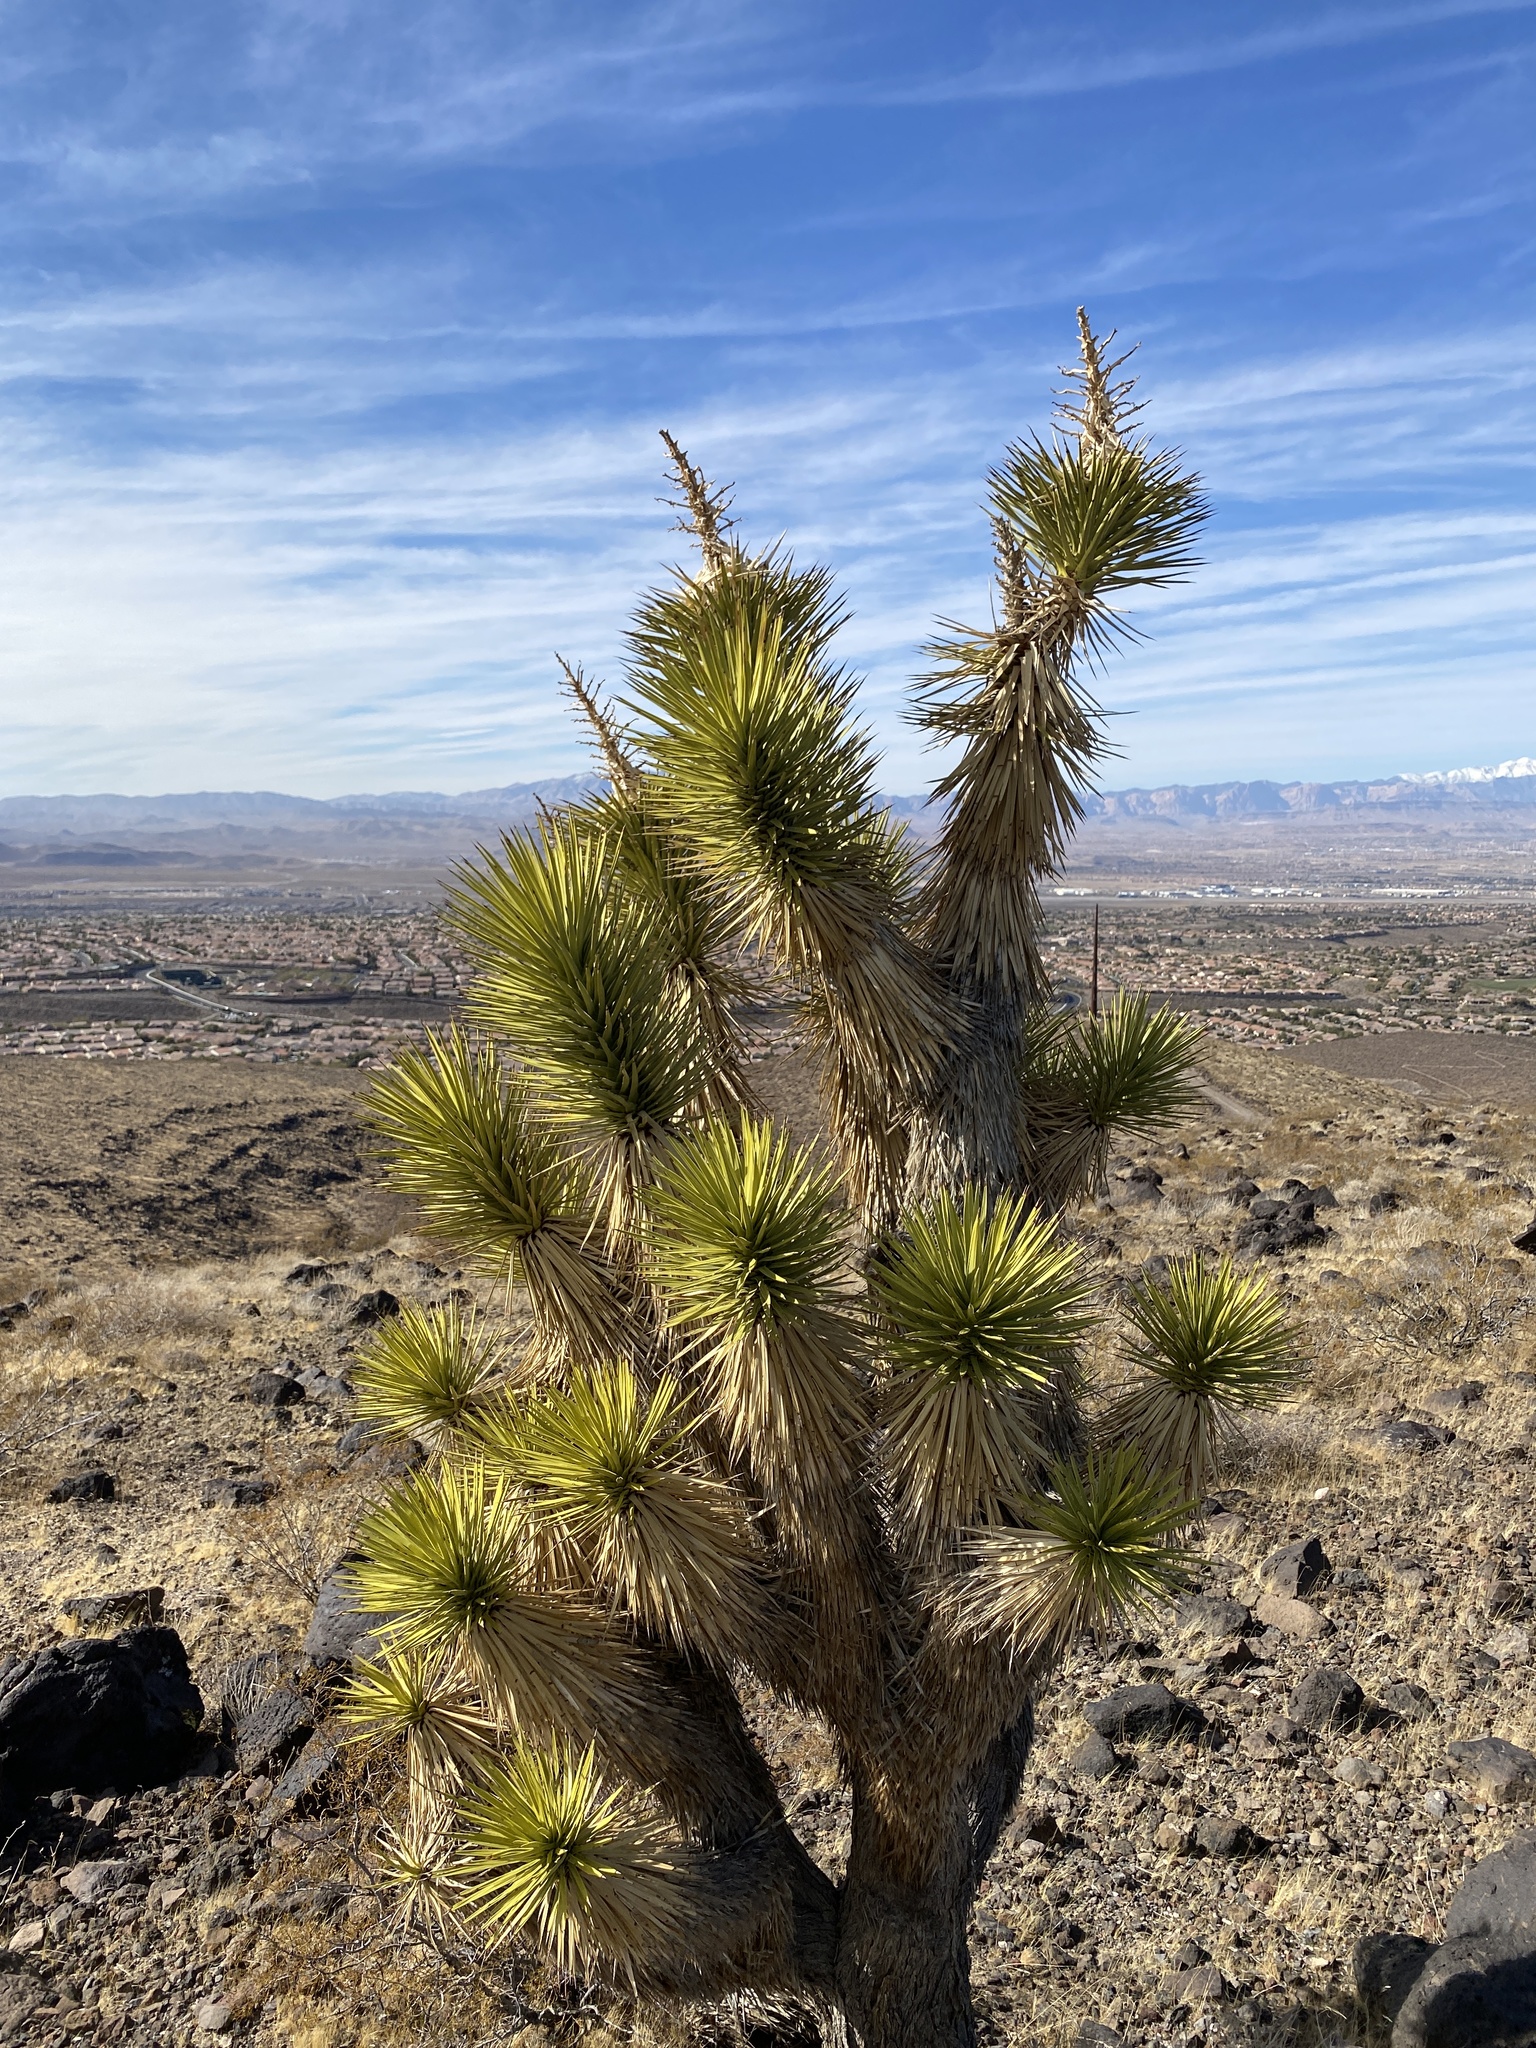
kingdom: Plantae
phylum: Tracheophyta
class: Liliopsida
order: Asparagales
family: Asparagaceae
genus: Yucca
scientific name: Yucca brevifolia
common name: Joshua tree
